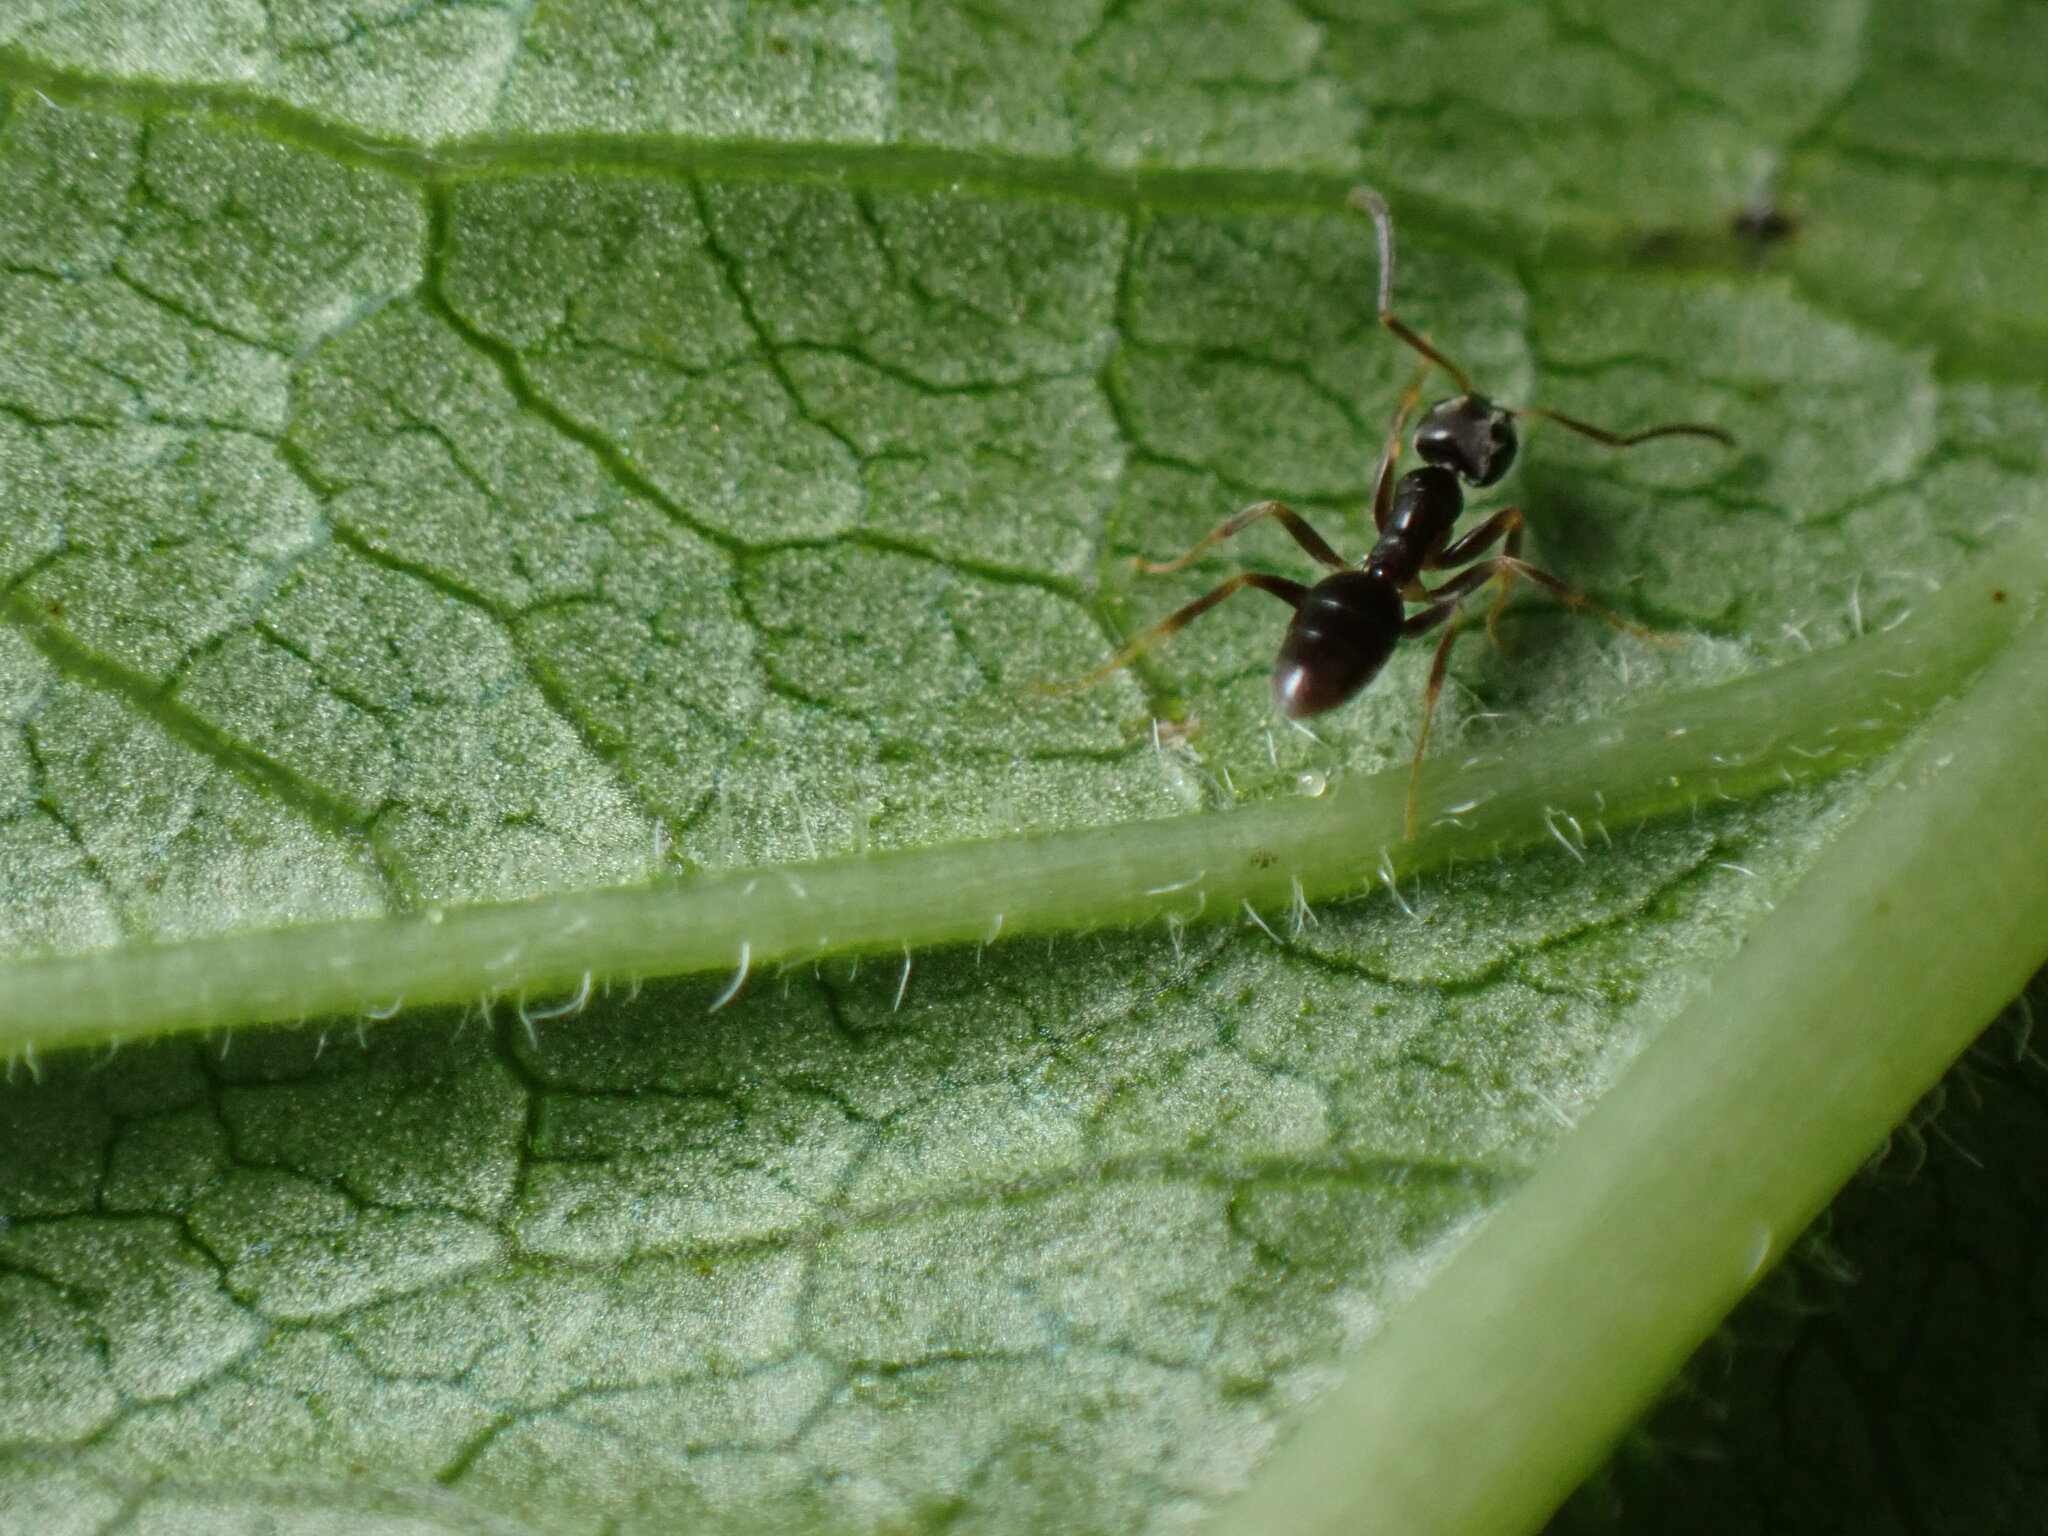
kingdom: Animalia
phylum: Arthropoda
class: Insecta
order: Hymenoptera
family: Formicidae
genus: Tapinoma
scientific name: Tapinoma sessile
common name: Odorous house ant
